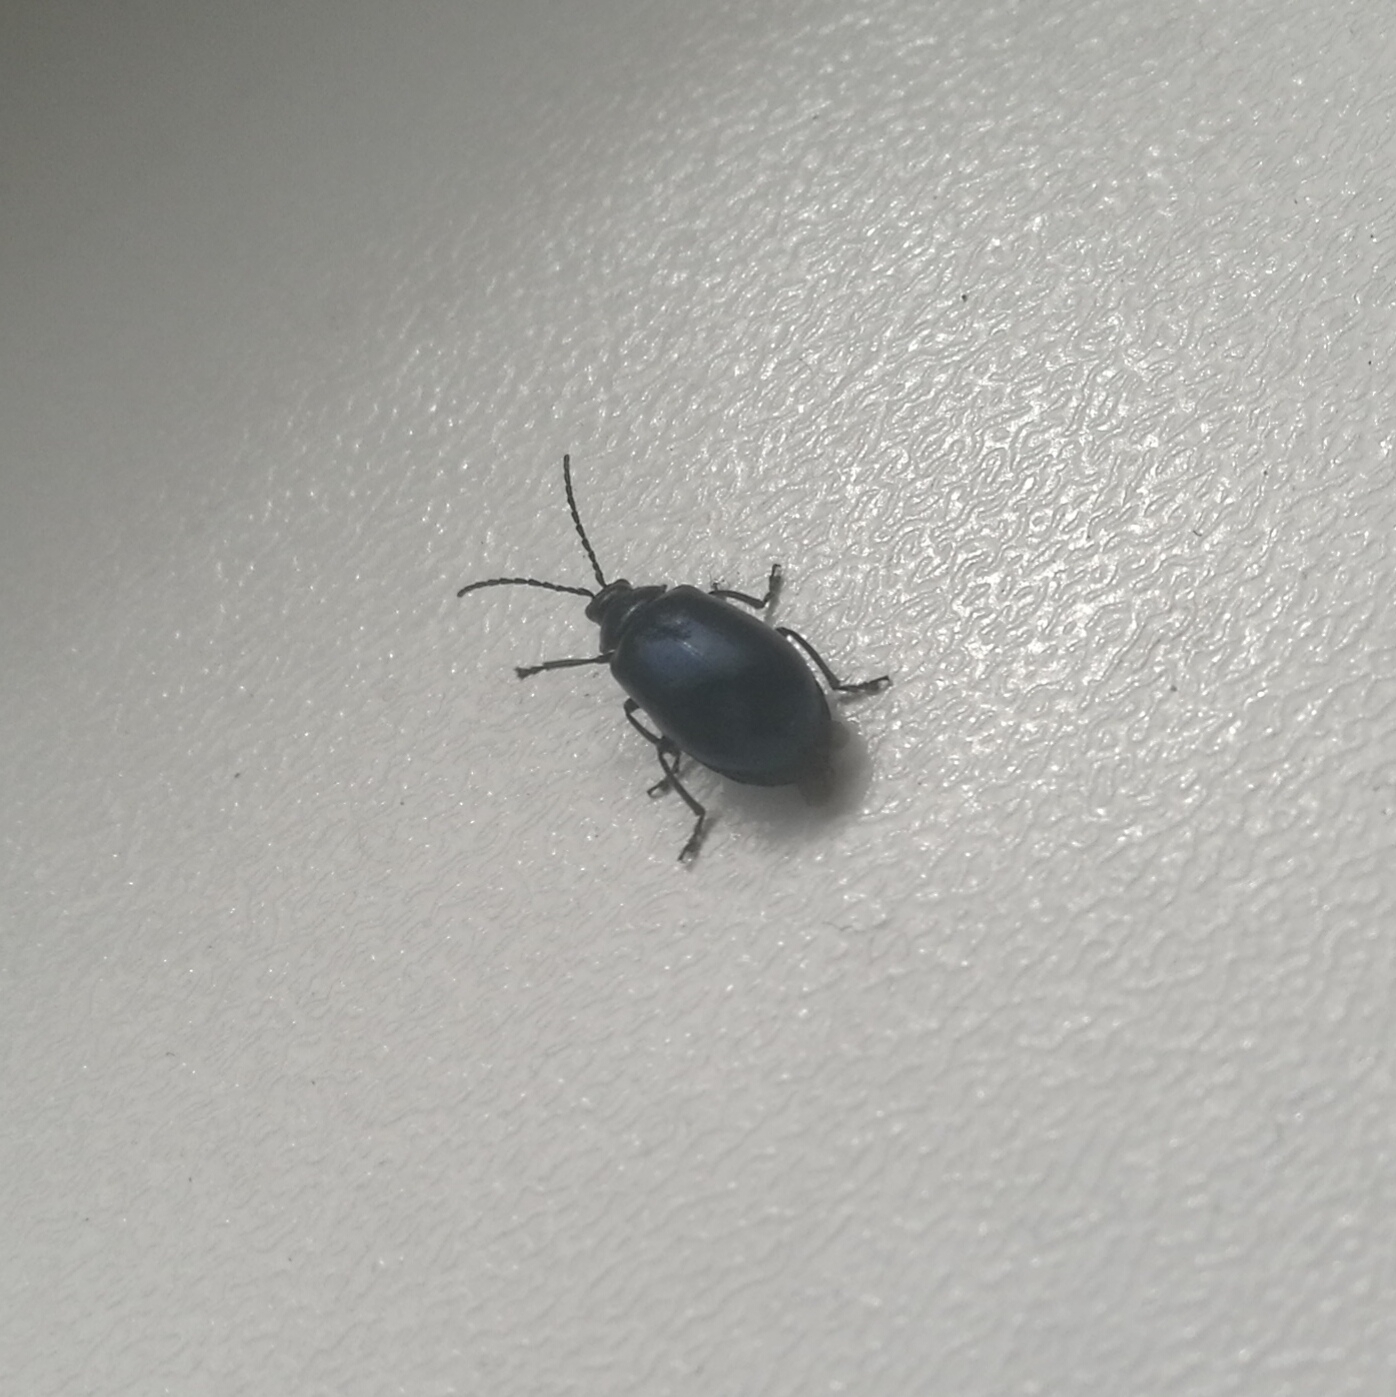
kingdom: Animalia
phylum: Arthropoda
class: Insecta
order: Coleoptera
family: Chrysomelidae
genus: Agelastica
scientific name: Agelastica alni
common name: Alder leaf beetle
